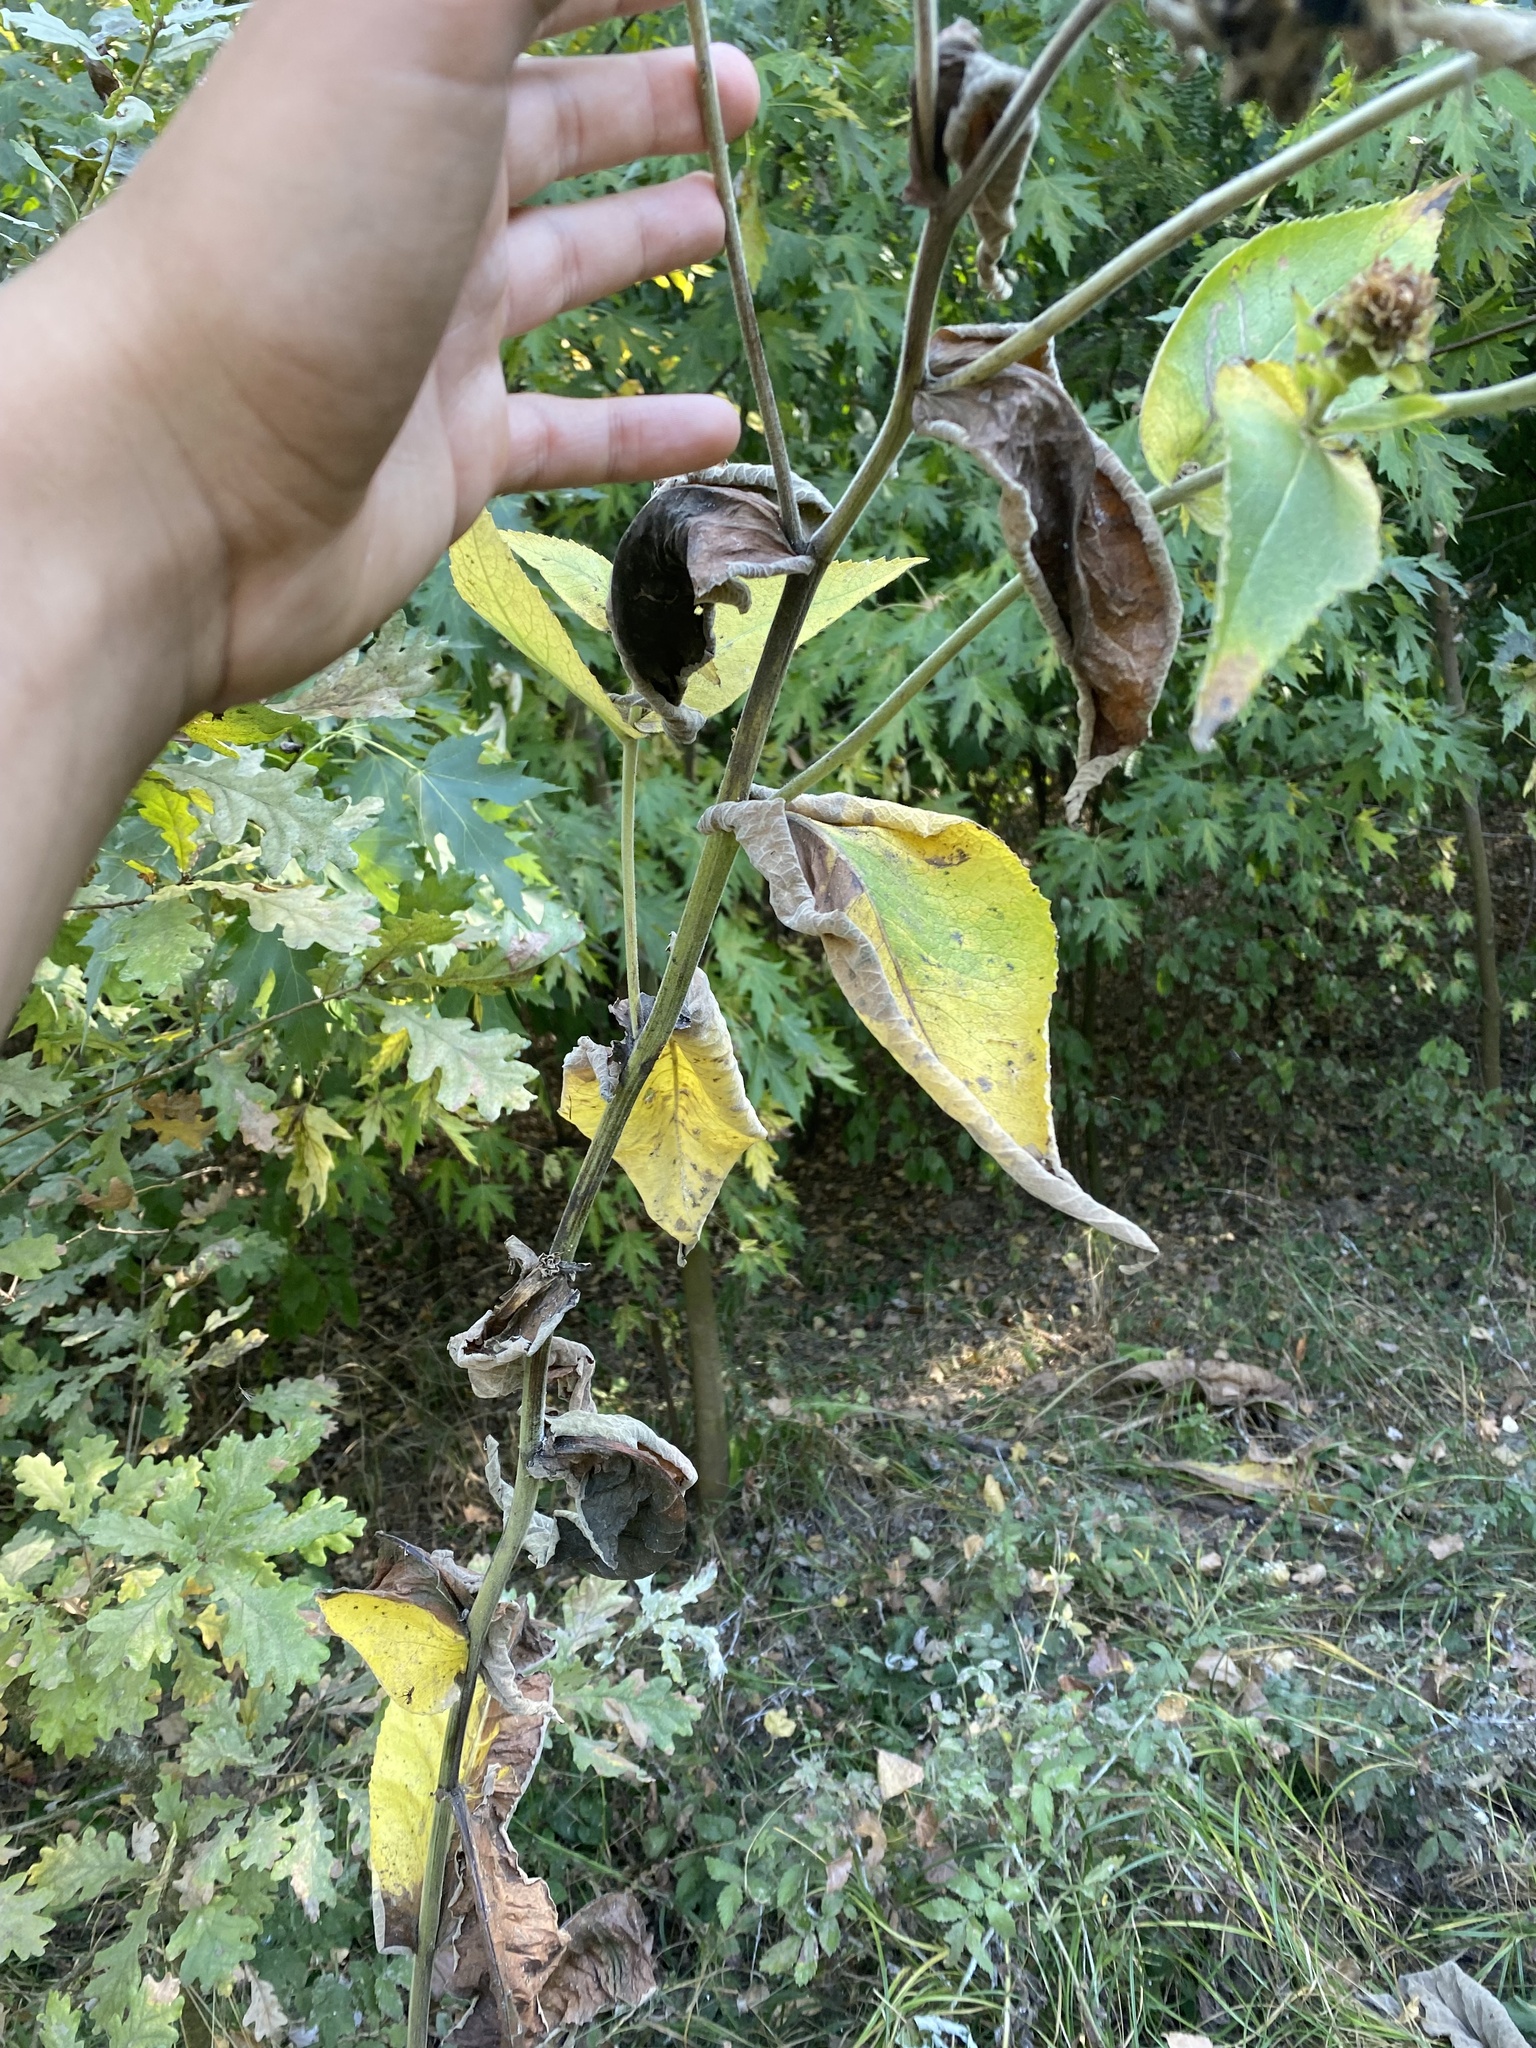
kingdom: Plantae
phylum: Tracheophyta
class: Magnoliopsida
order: Asterales
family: Asteraceae
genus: Inula
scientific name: Inula helenium
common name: Elecampane
